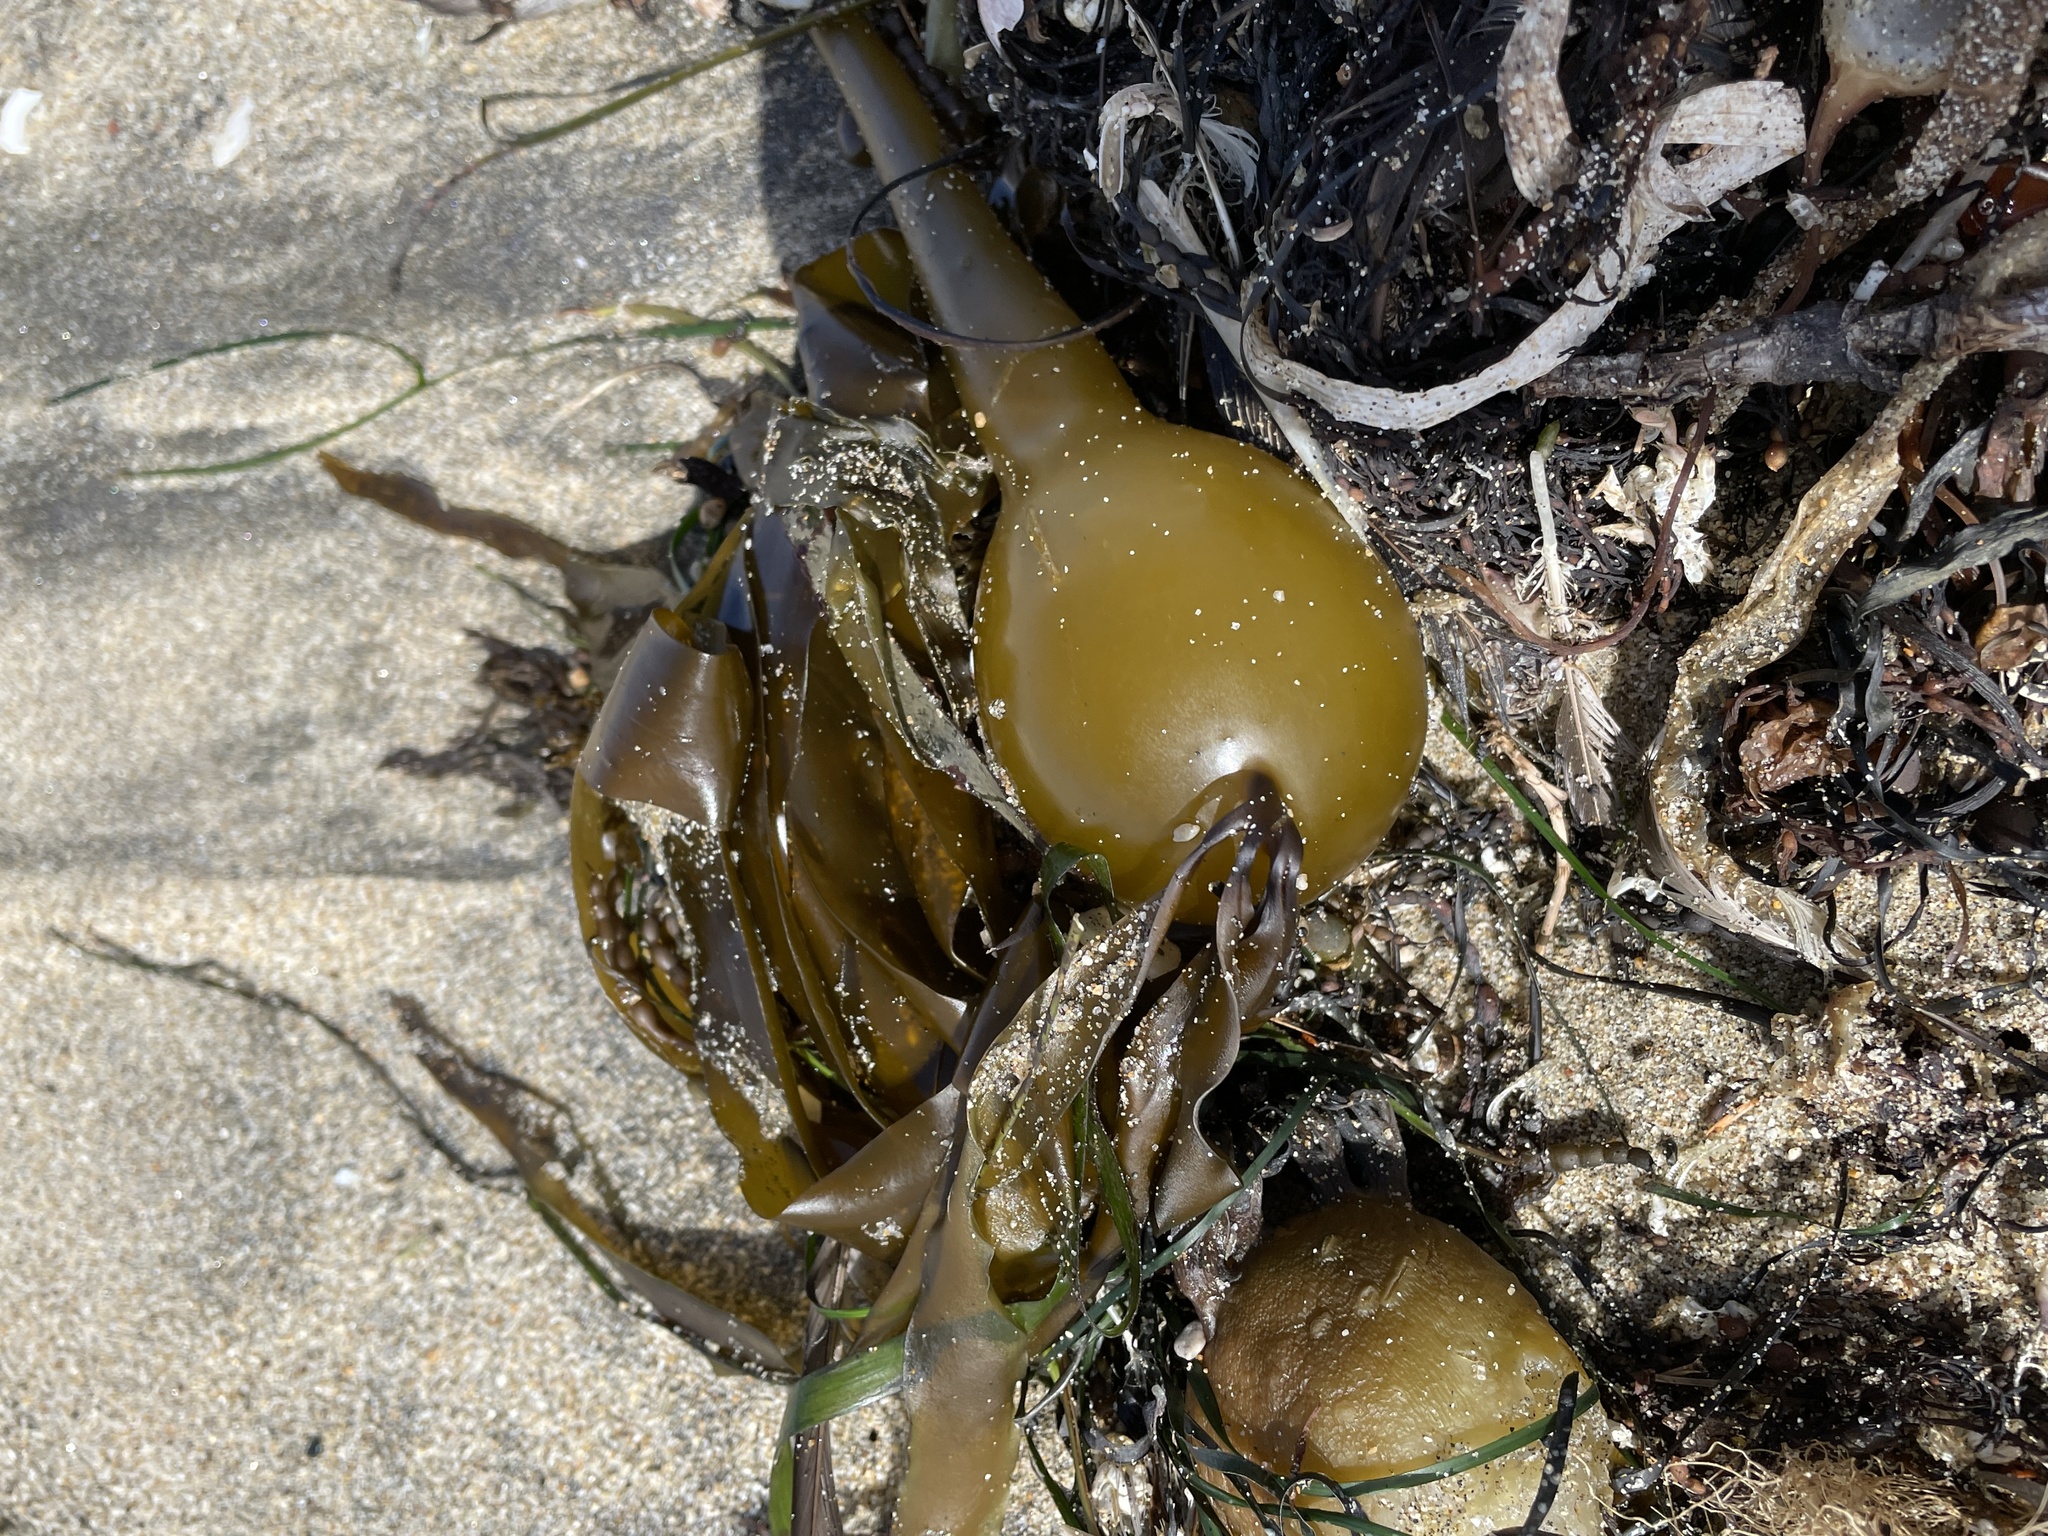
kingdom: Chromista
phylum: Ochrophyta
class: Phaeophyceae
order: Laminariales
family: Laminariaceae
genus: Nereocystis
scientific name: Nereocystis luetkeana
